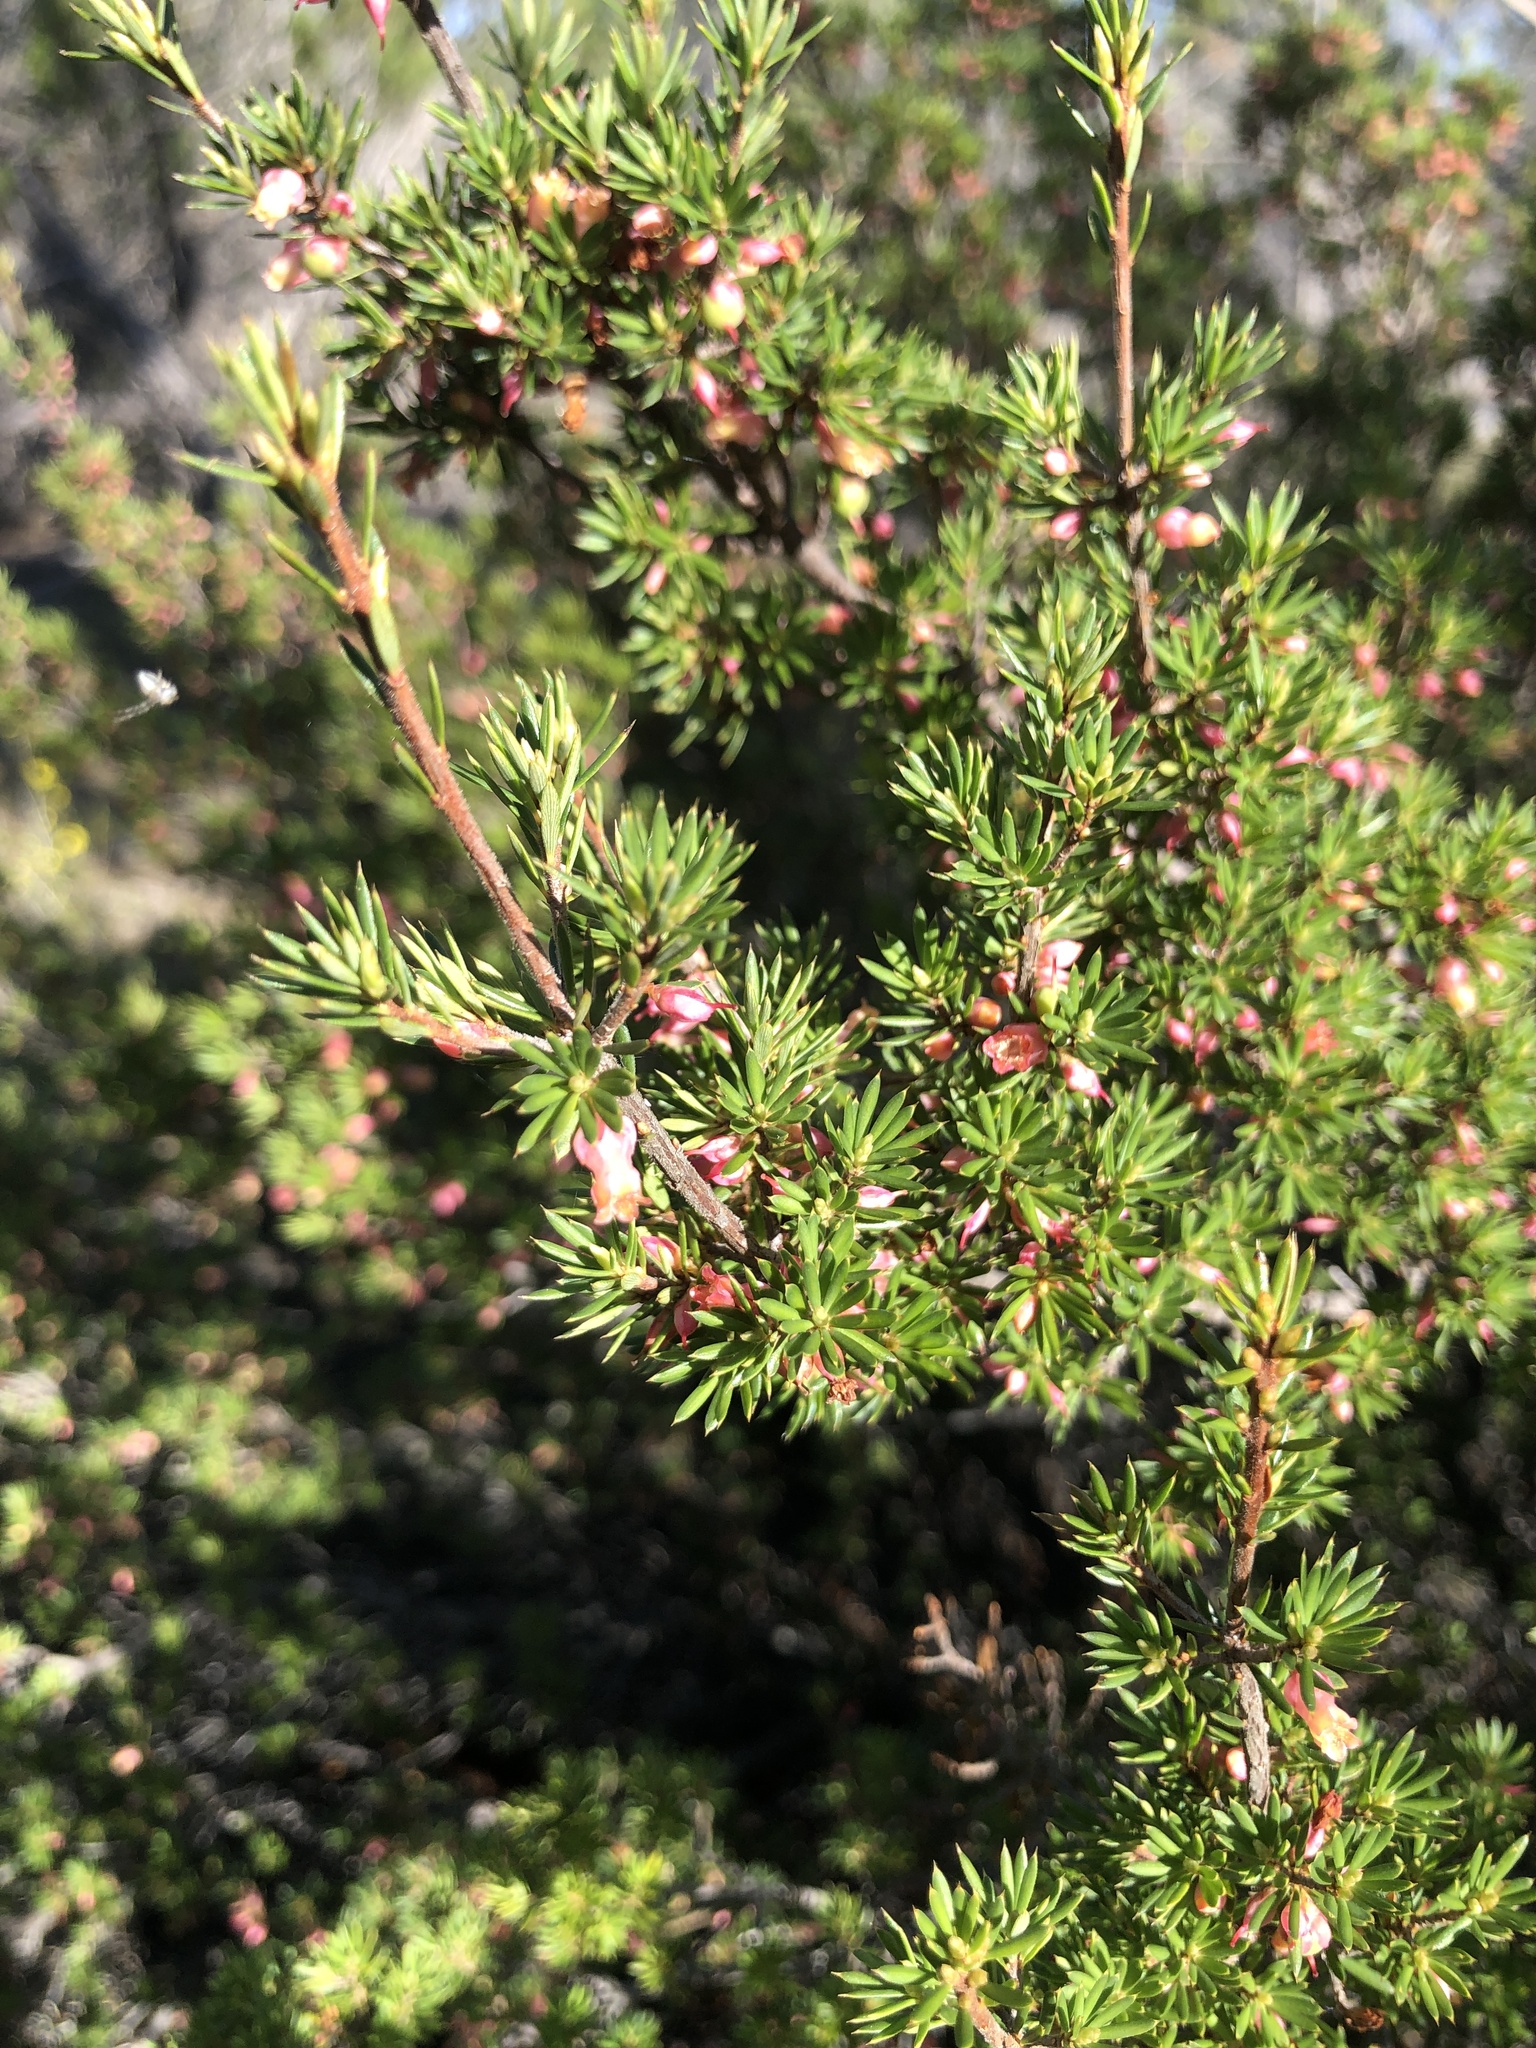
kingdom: Plantae
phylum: Tracheophyta
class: Magnoliopsida
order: Ericales
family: Ericaceae
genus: Brachyloma
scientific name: Brachyloma ericoides
